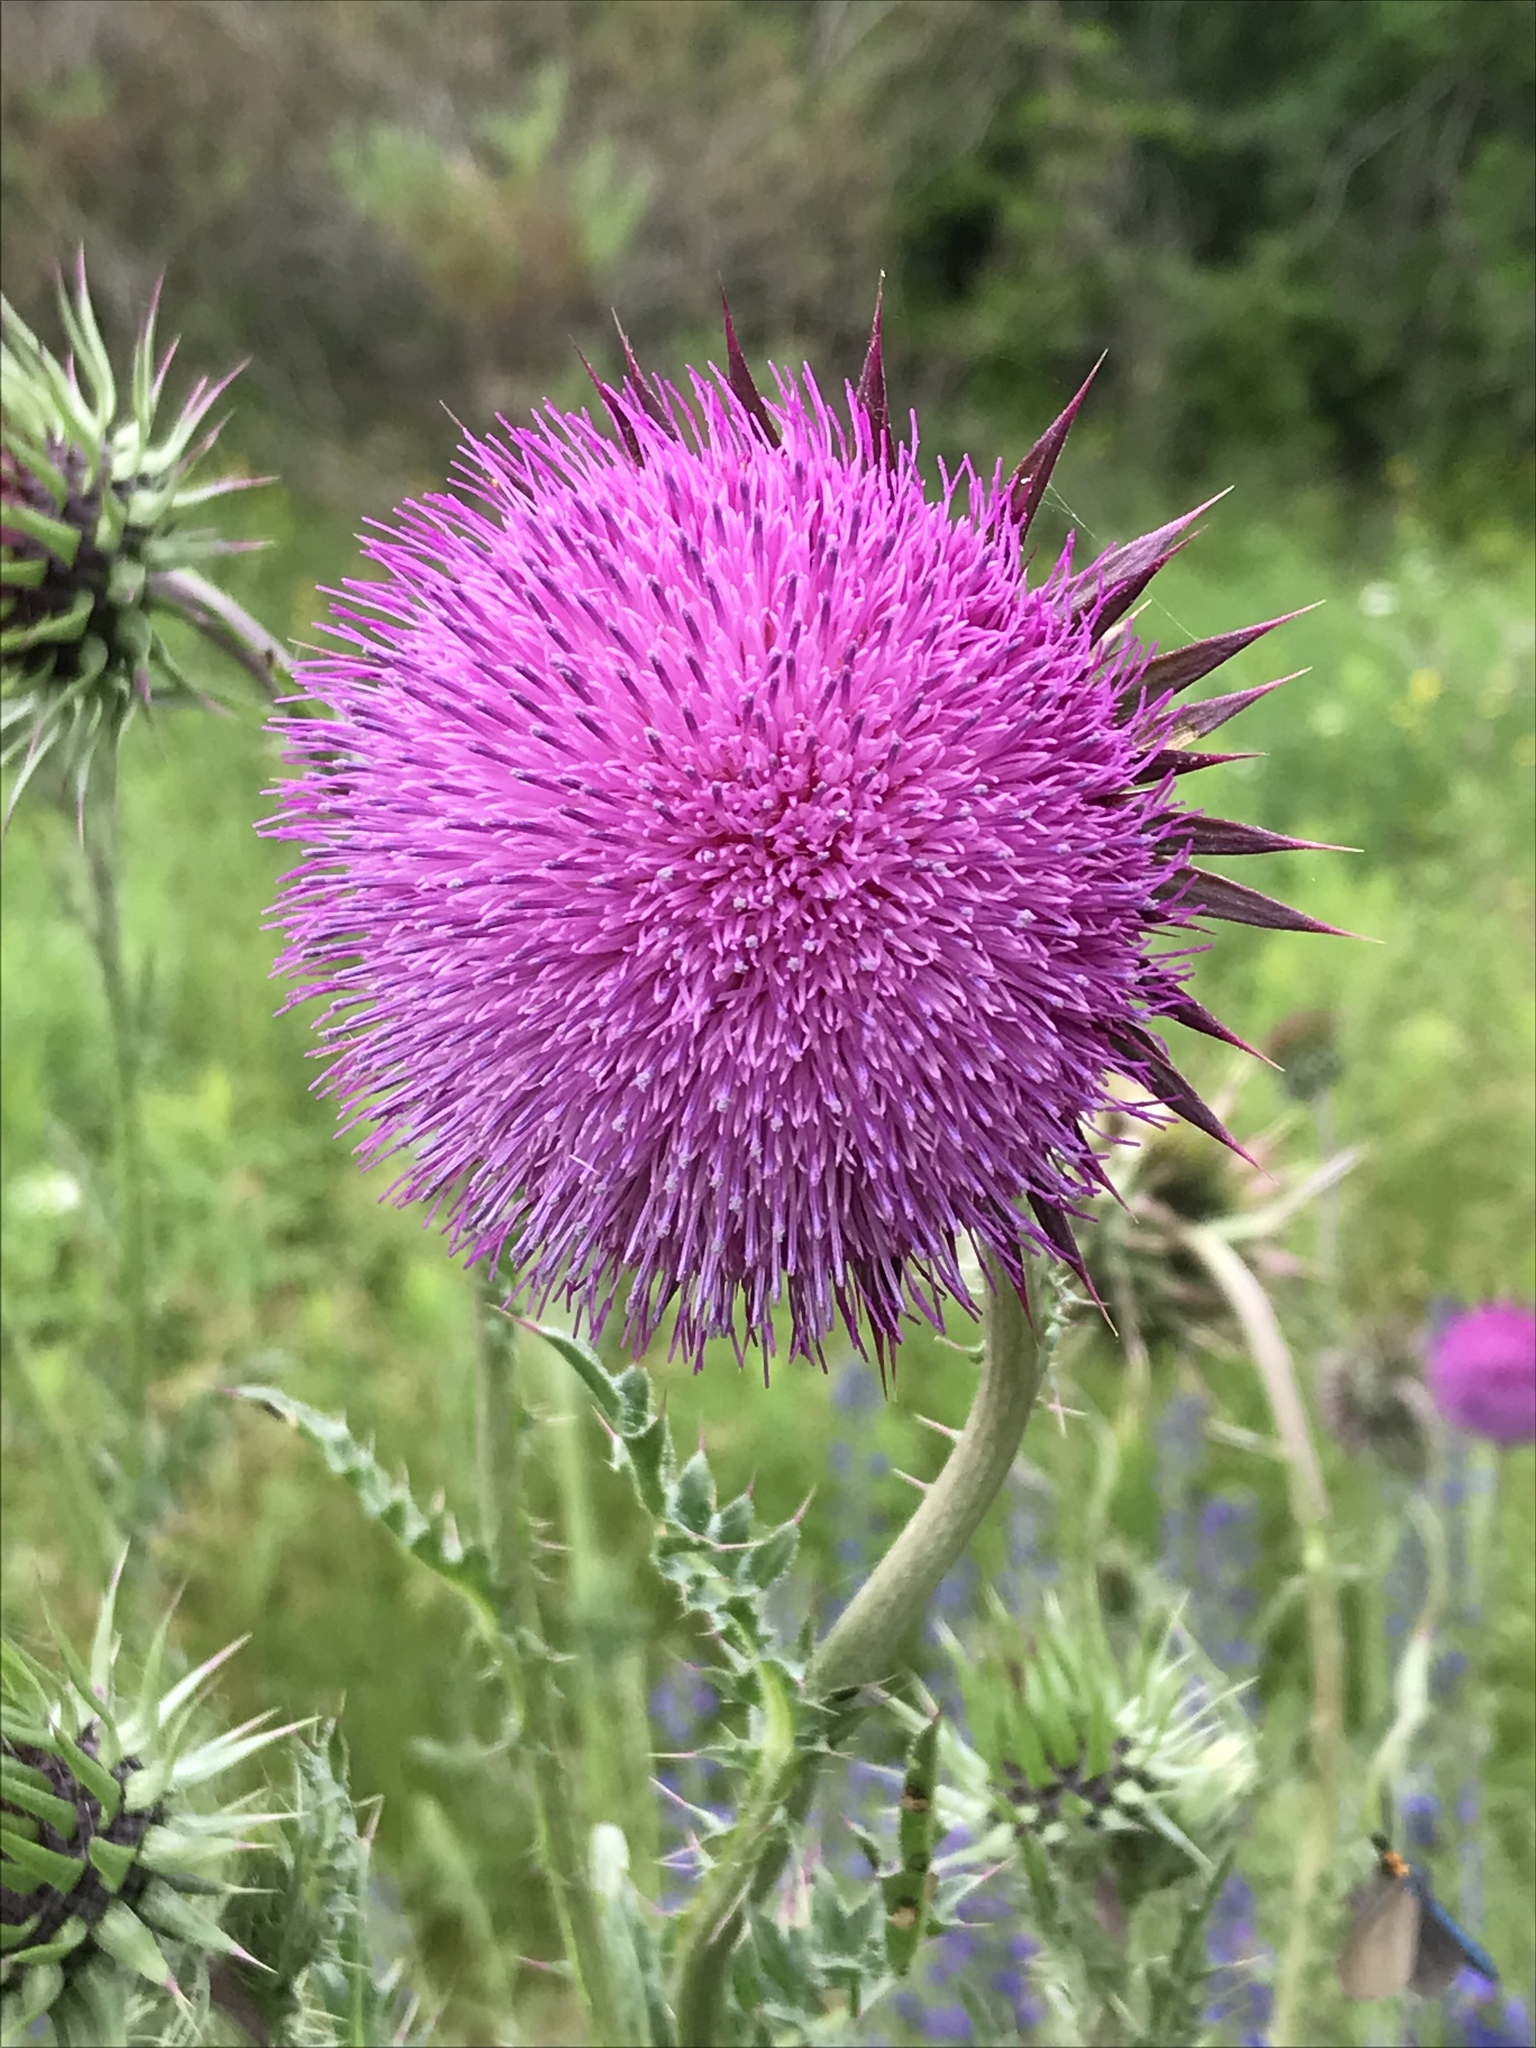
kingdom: Plantae
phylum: Tracheophyta
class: Magnoliopsida
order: Asterales
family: Asteraceae
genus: Carduus
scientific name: Carduus nutans
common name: Musk thistle
